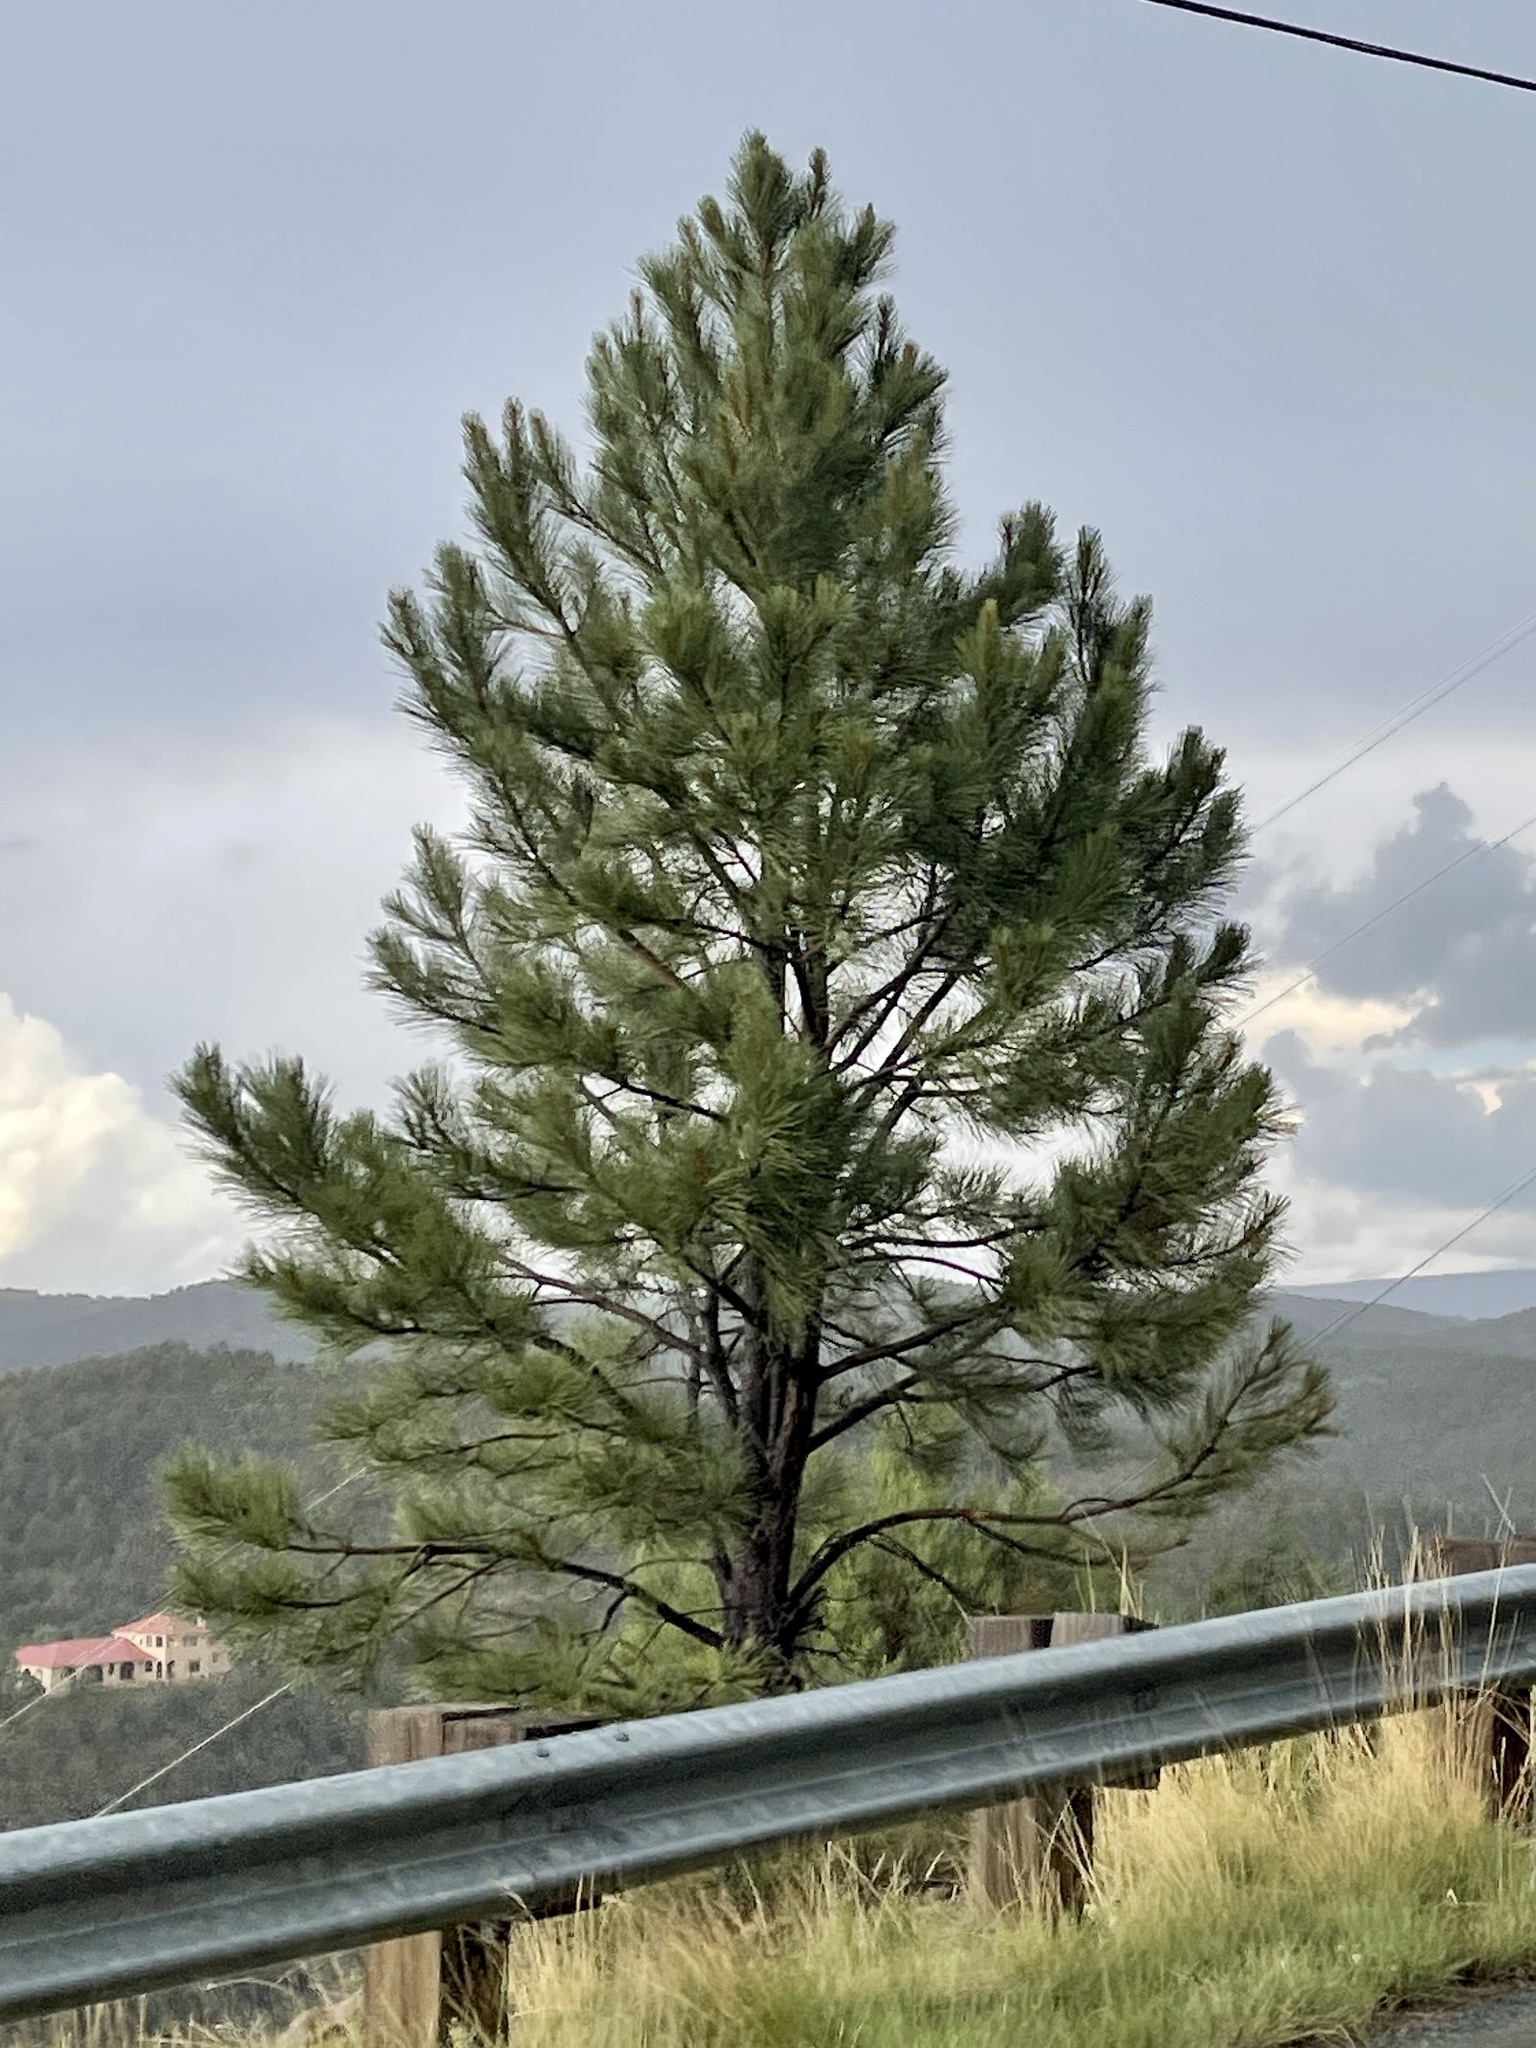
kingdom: Plantae
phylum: Tracheophyta
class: Pinopsida
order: Pinales
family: Pinaceae
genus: Pinus
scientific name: Pinus ponderosa
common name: Western yellow-pine
